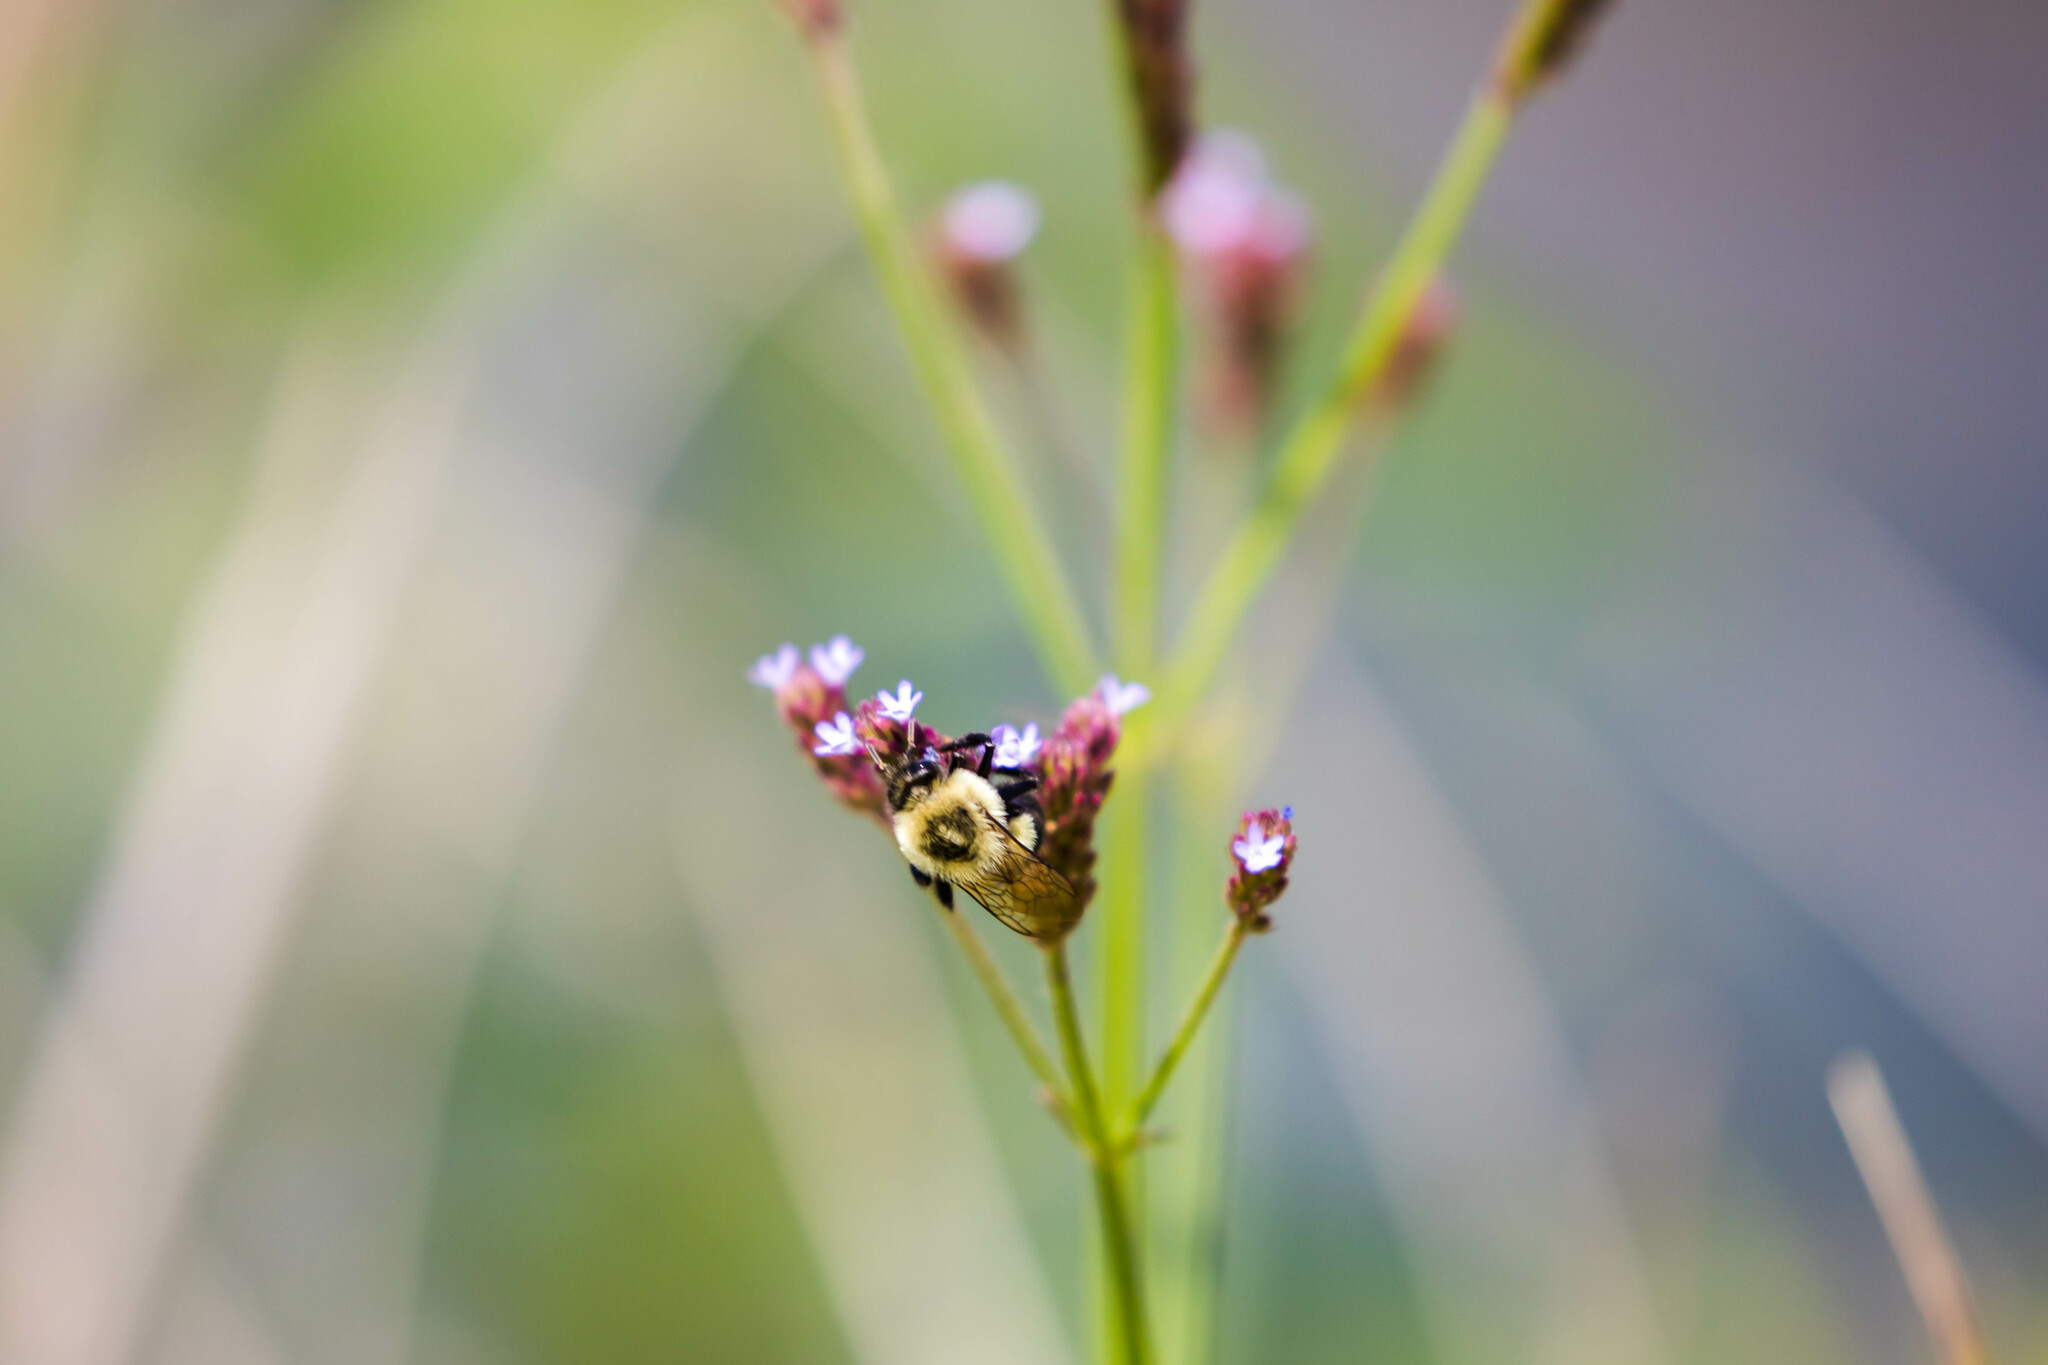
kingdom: Animalia
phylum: Arthropoda
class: Insecta
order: Hymenoptera
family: Apidae
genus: Bombus
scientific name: Bombus impatiens
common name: Common eastern bumble bee
